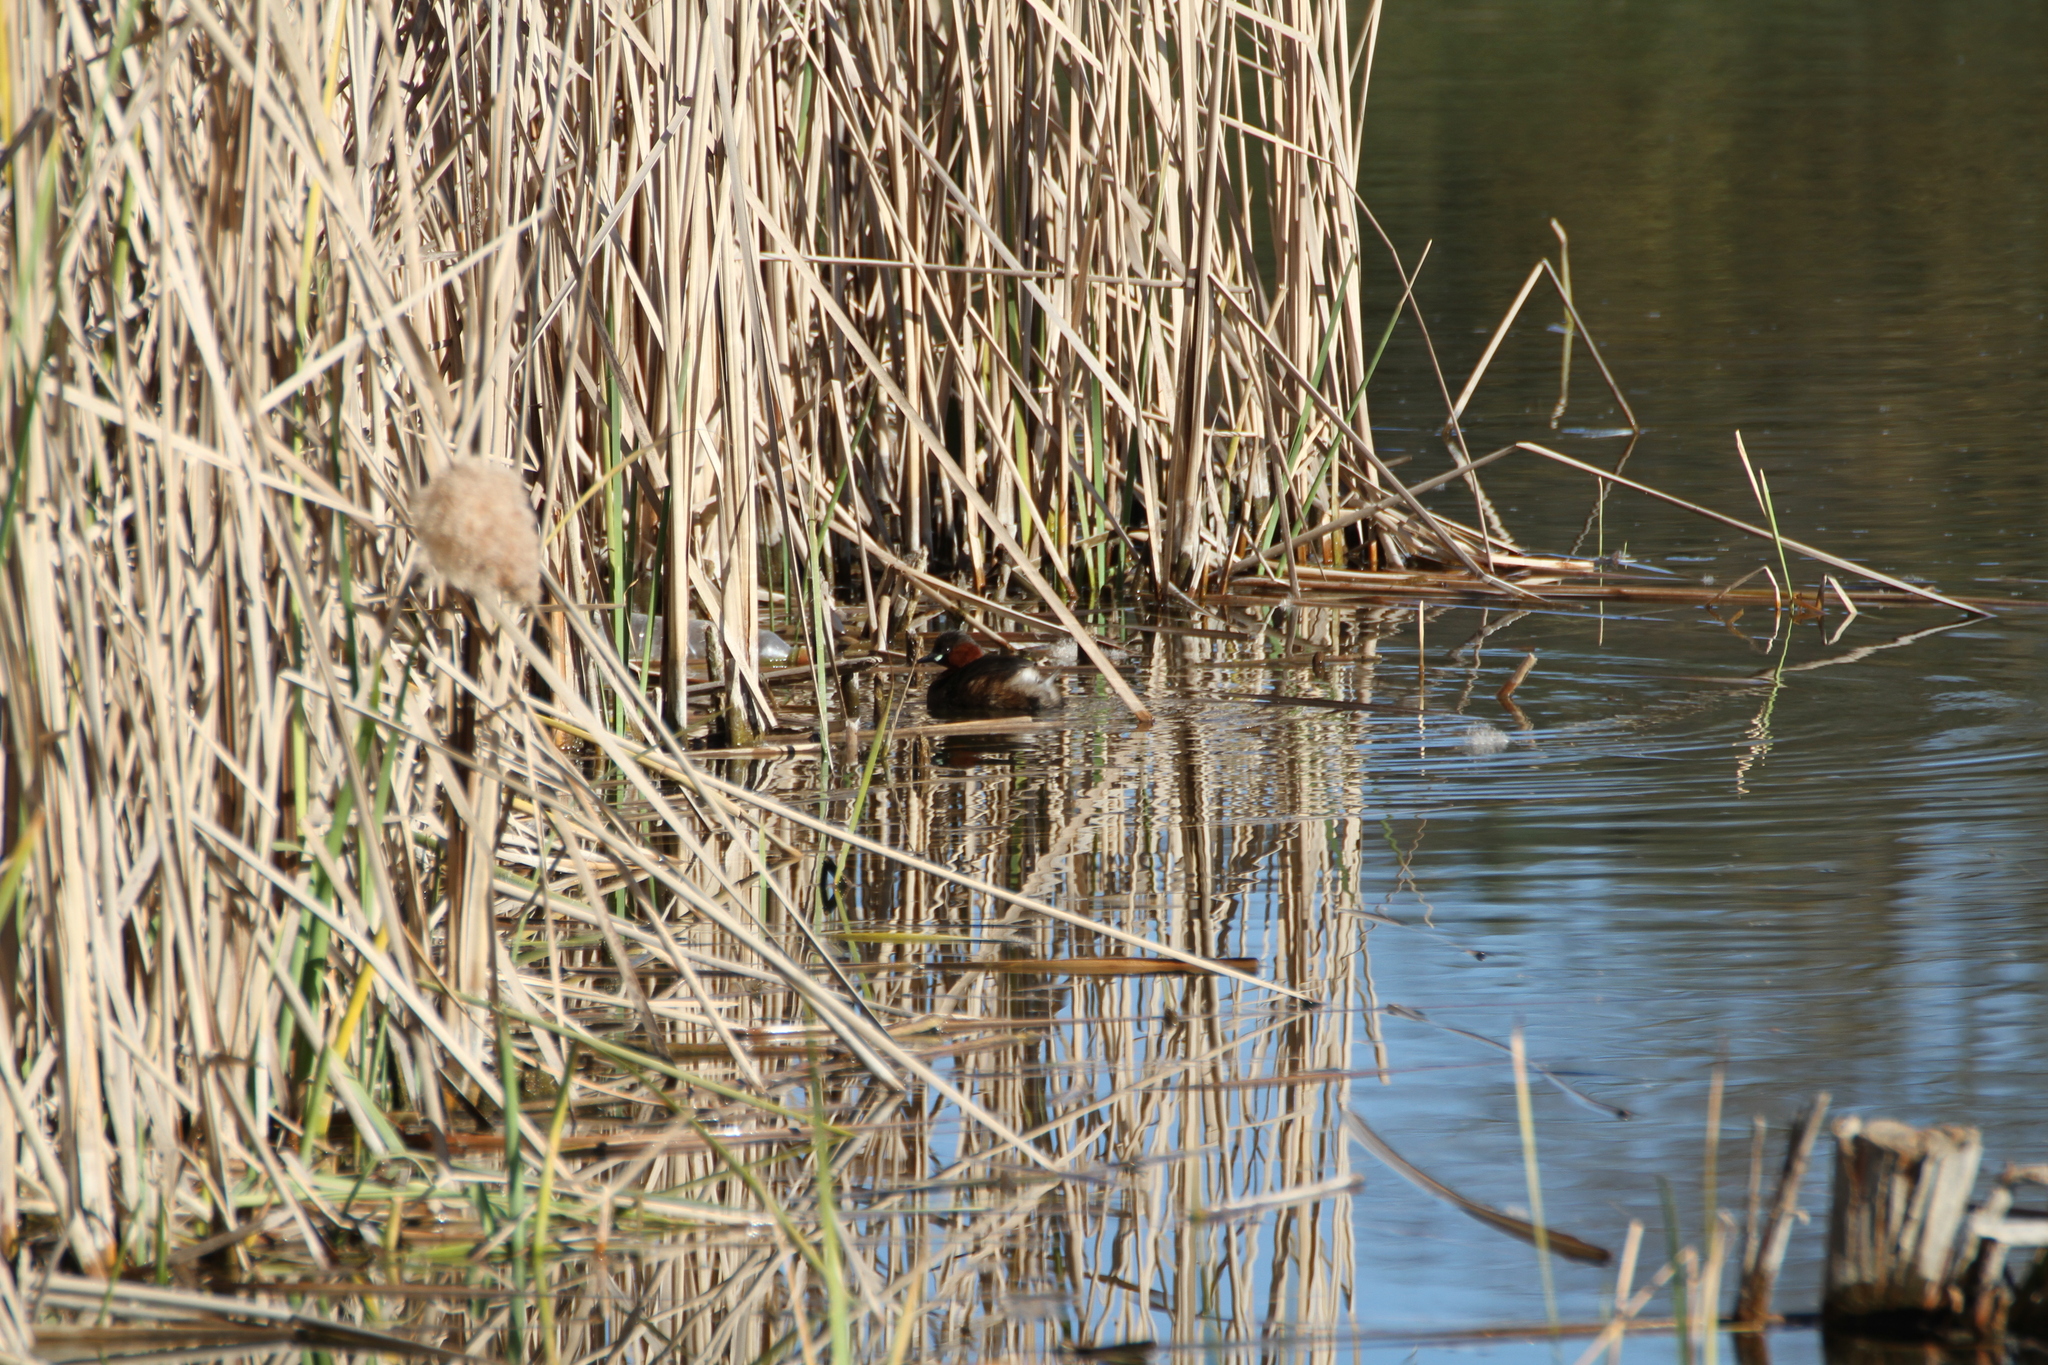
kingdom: Animalia
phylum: Chordata
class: Aves
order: Podicipediformes
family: Podicipedidae
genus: Tachybaptus
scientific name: Tachybaptus ruficollis
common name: Little grebe
